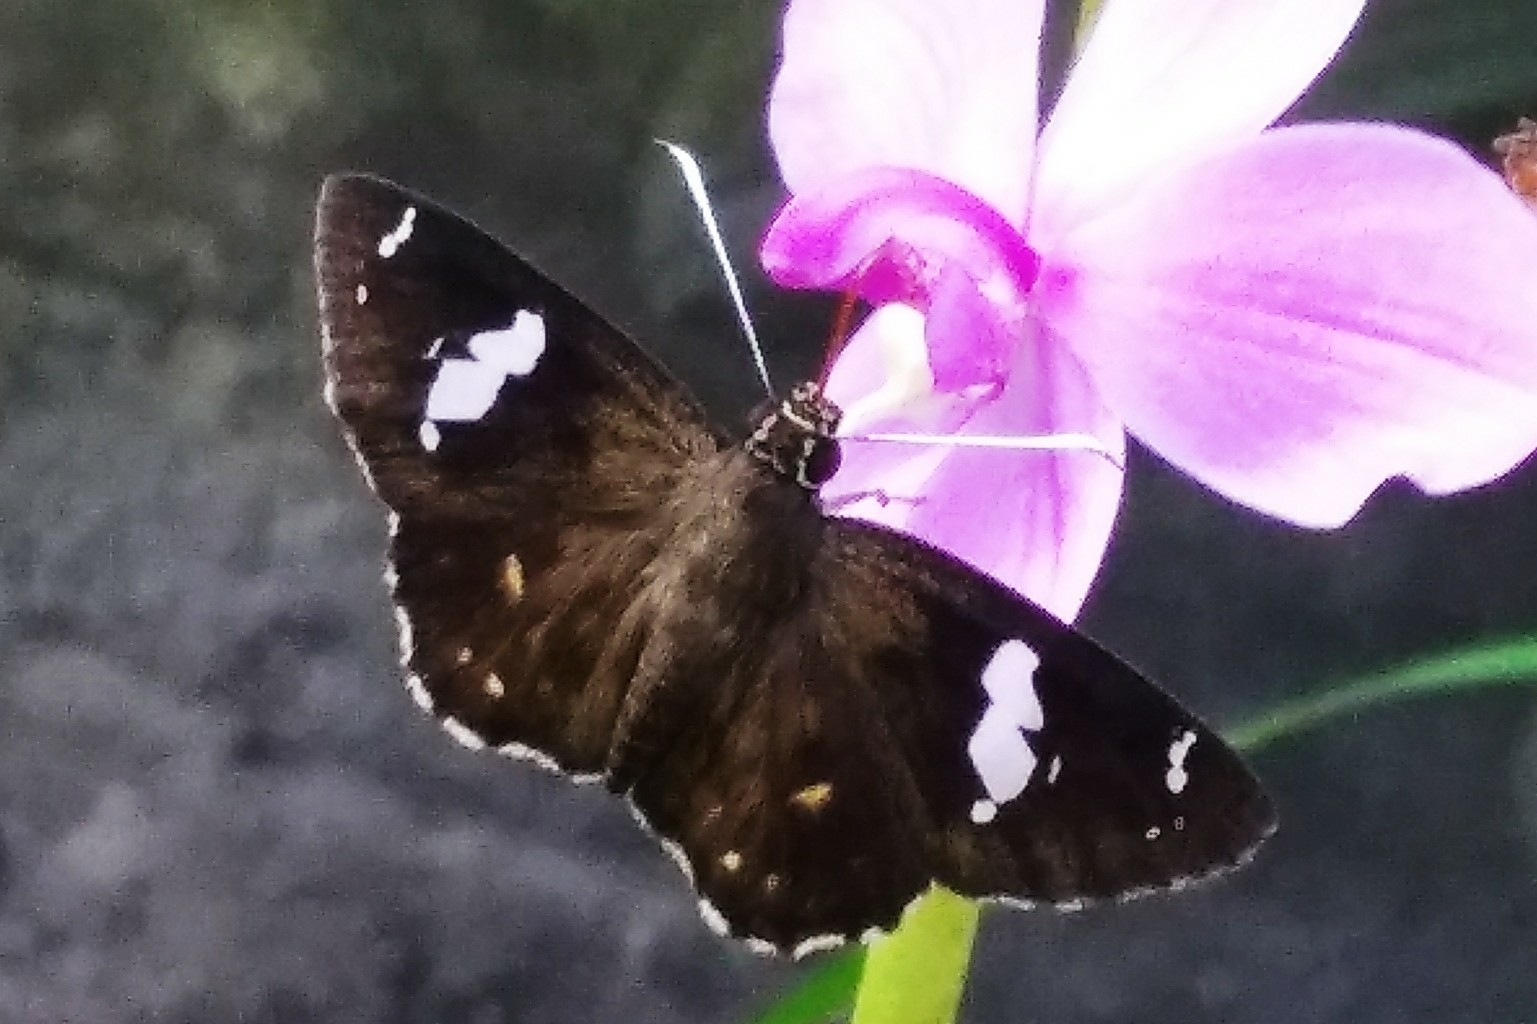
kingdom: Animalia
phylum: Arthropoda
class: Insecta
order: Lepidoptera
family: Hesperiidae
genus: Celaenorrhinus
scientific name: Celaenorrhinus putra
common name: Restricted spotted flat
